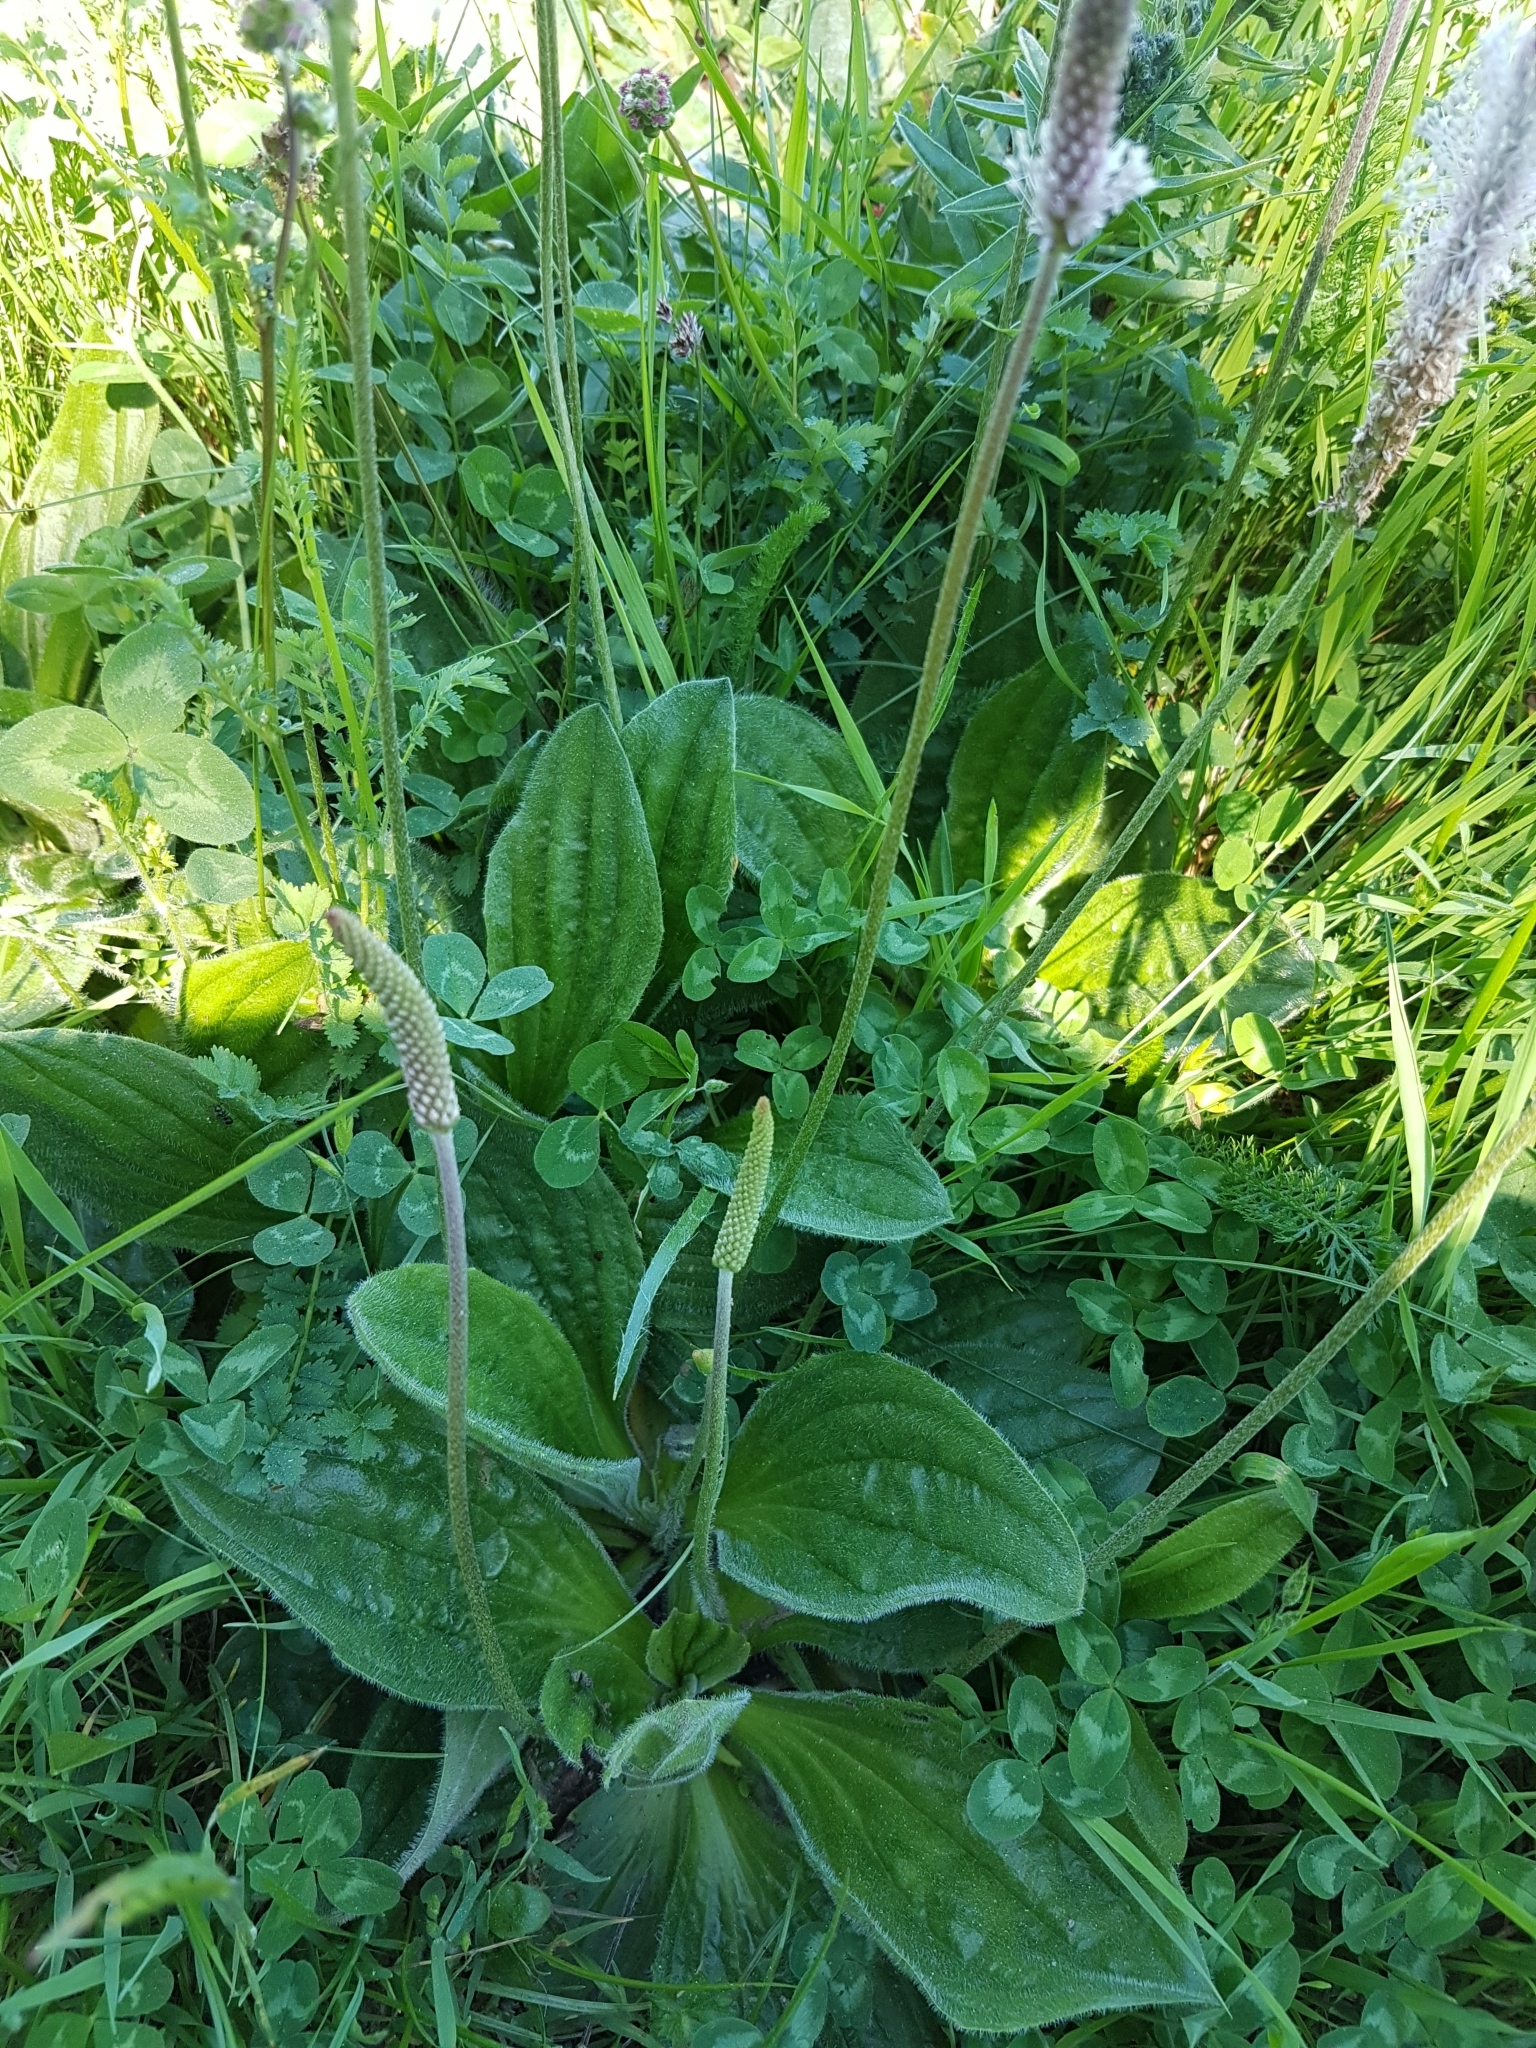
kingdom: Plantae
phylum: Tracheophyta
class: Magnoliopsida
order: Lamiales
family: Plantaginaceae
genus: Plantago
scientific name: Plantago media
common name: Hoary plantain
